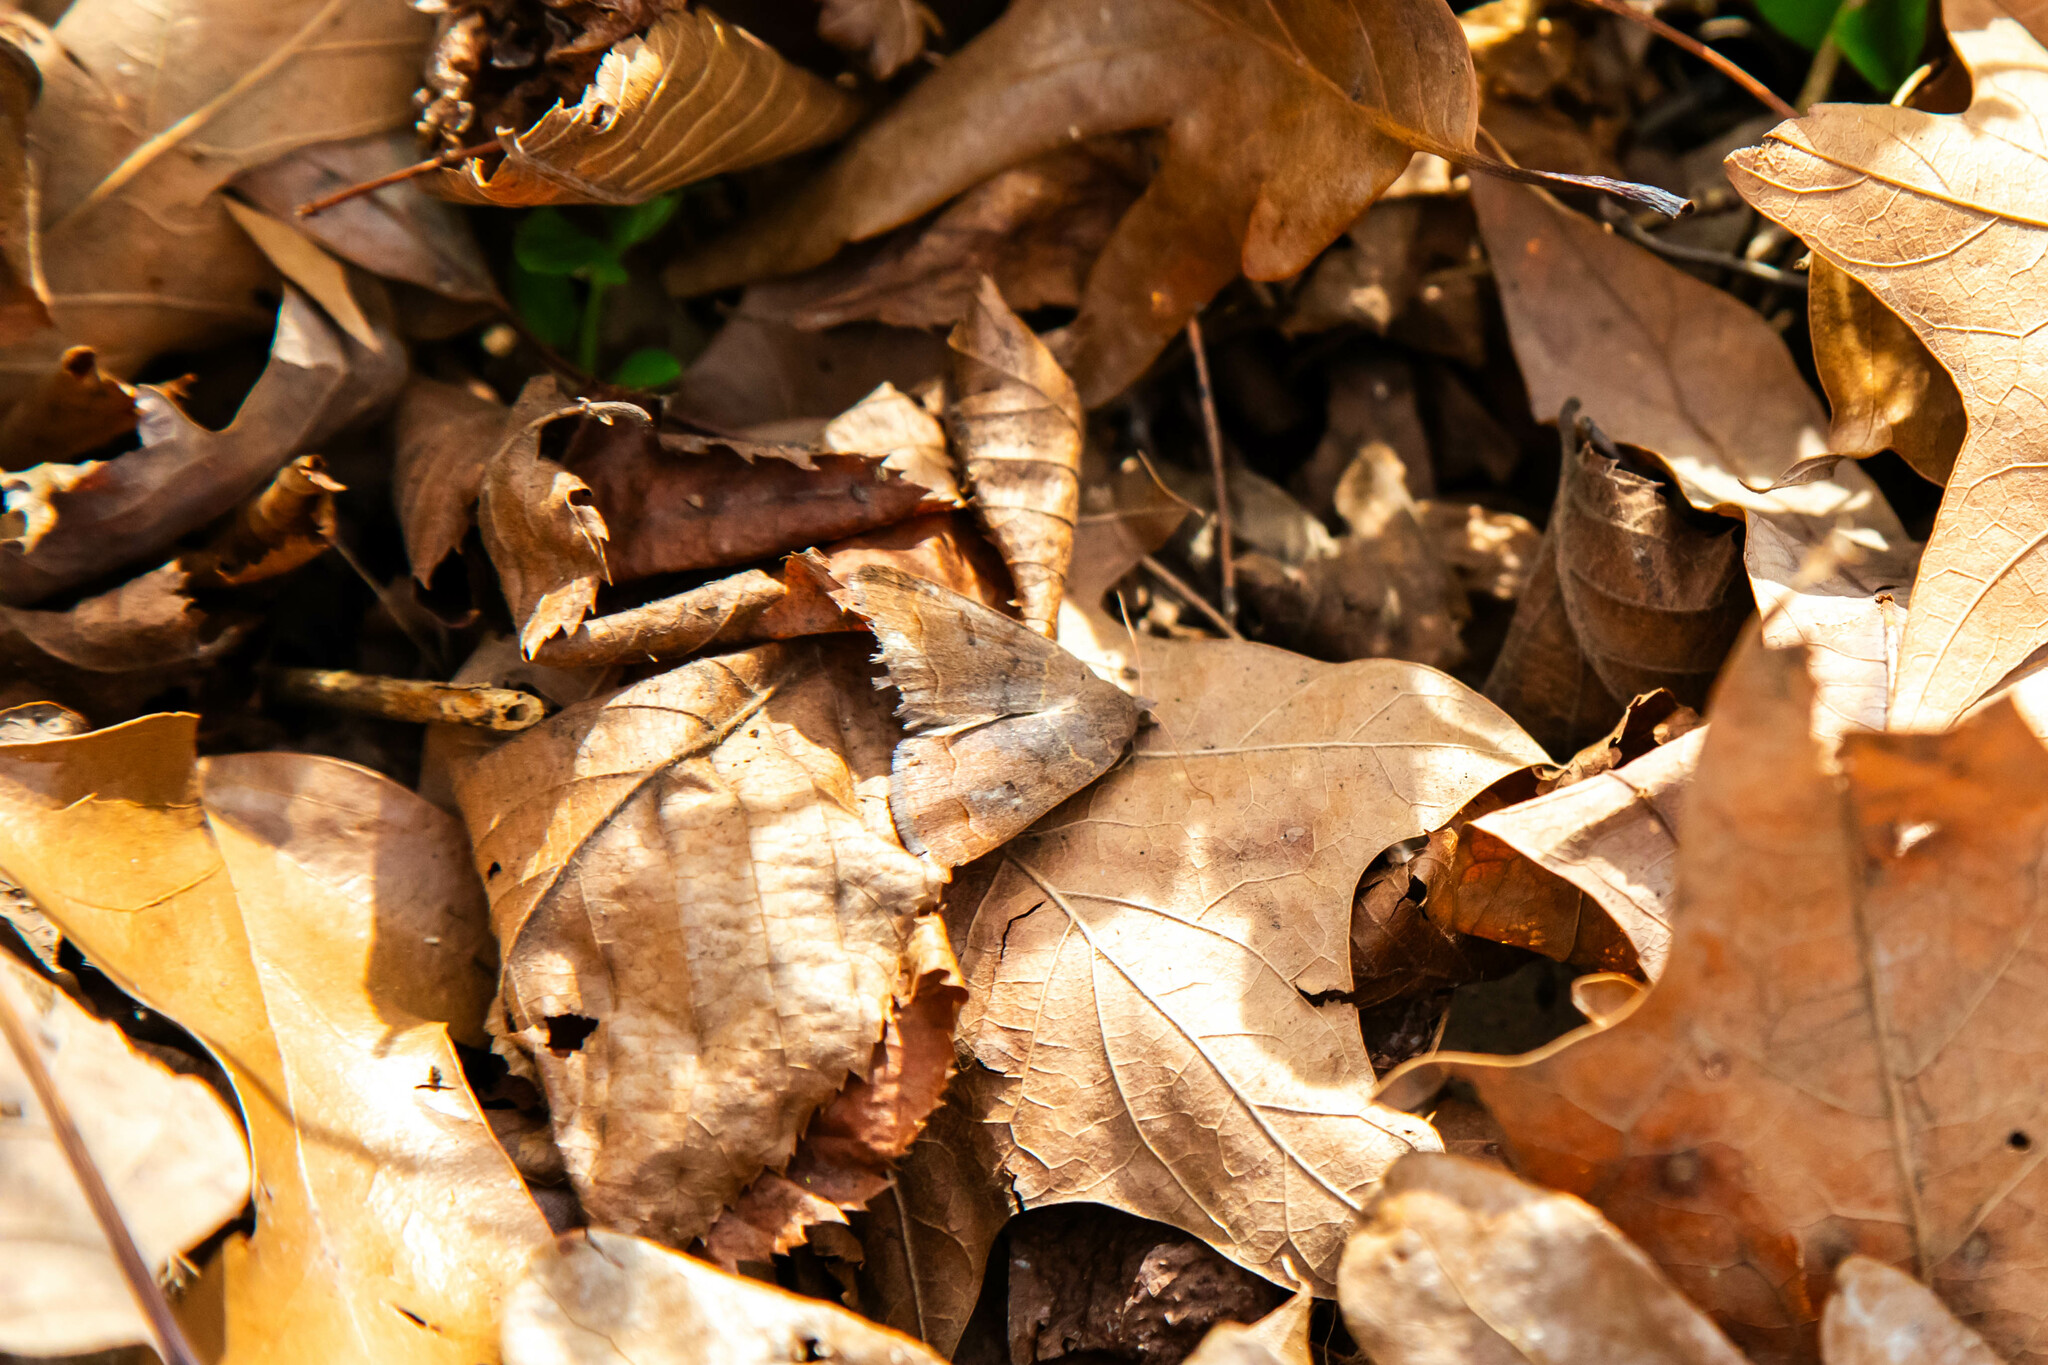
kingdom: Animalia
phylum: Arthropoda
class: Insecta
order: Lepidoptera
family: Erebidae
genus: Phoberia
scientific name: Phoberia atomaris
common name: Common oak moth
